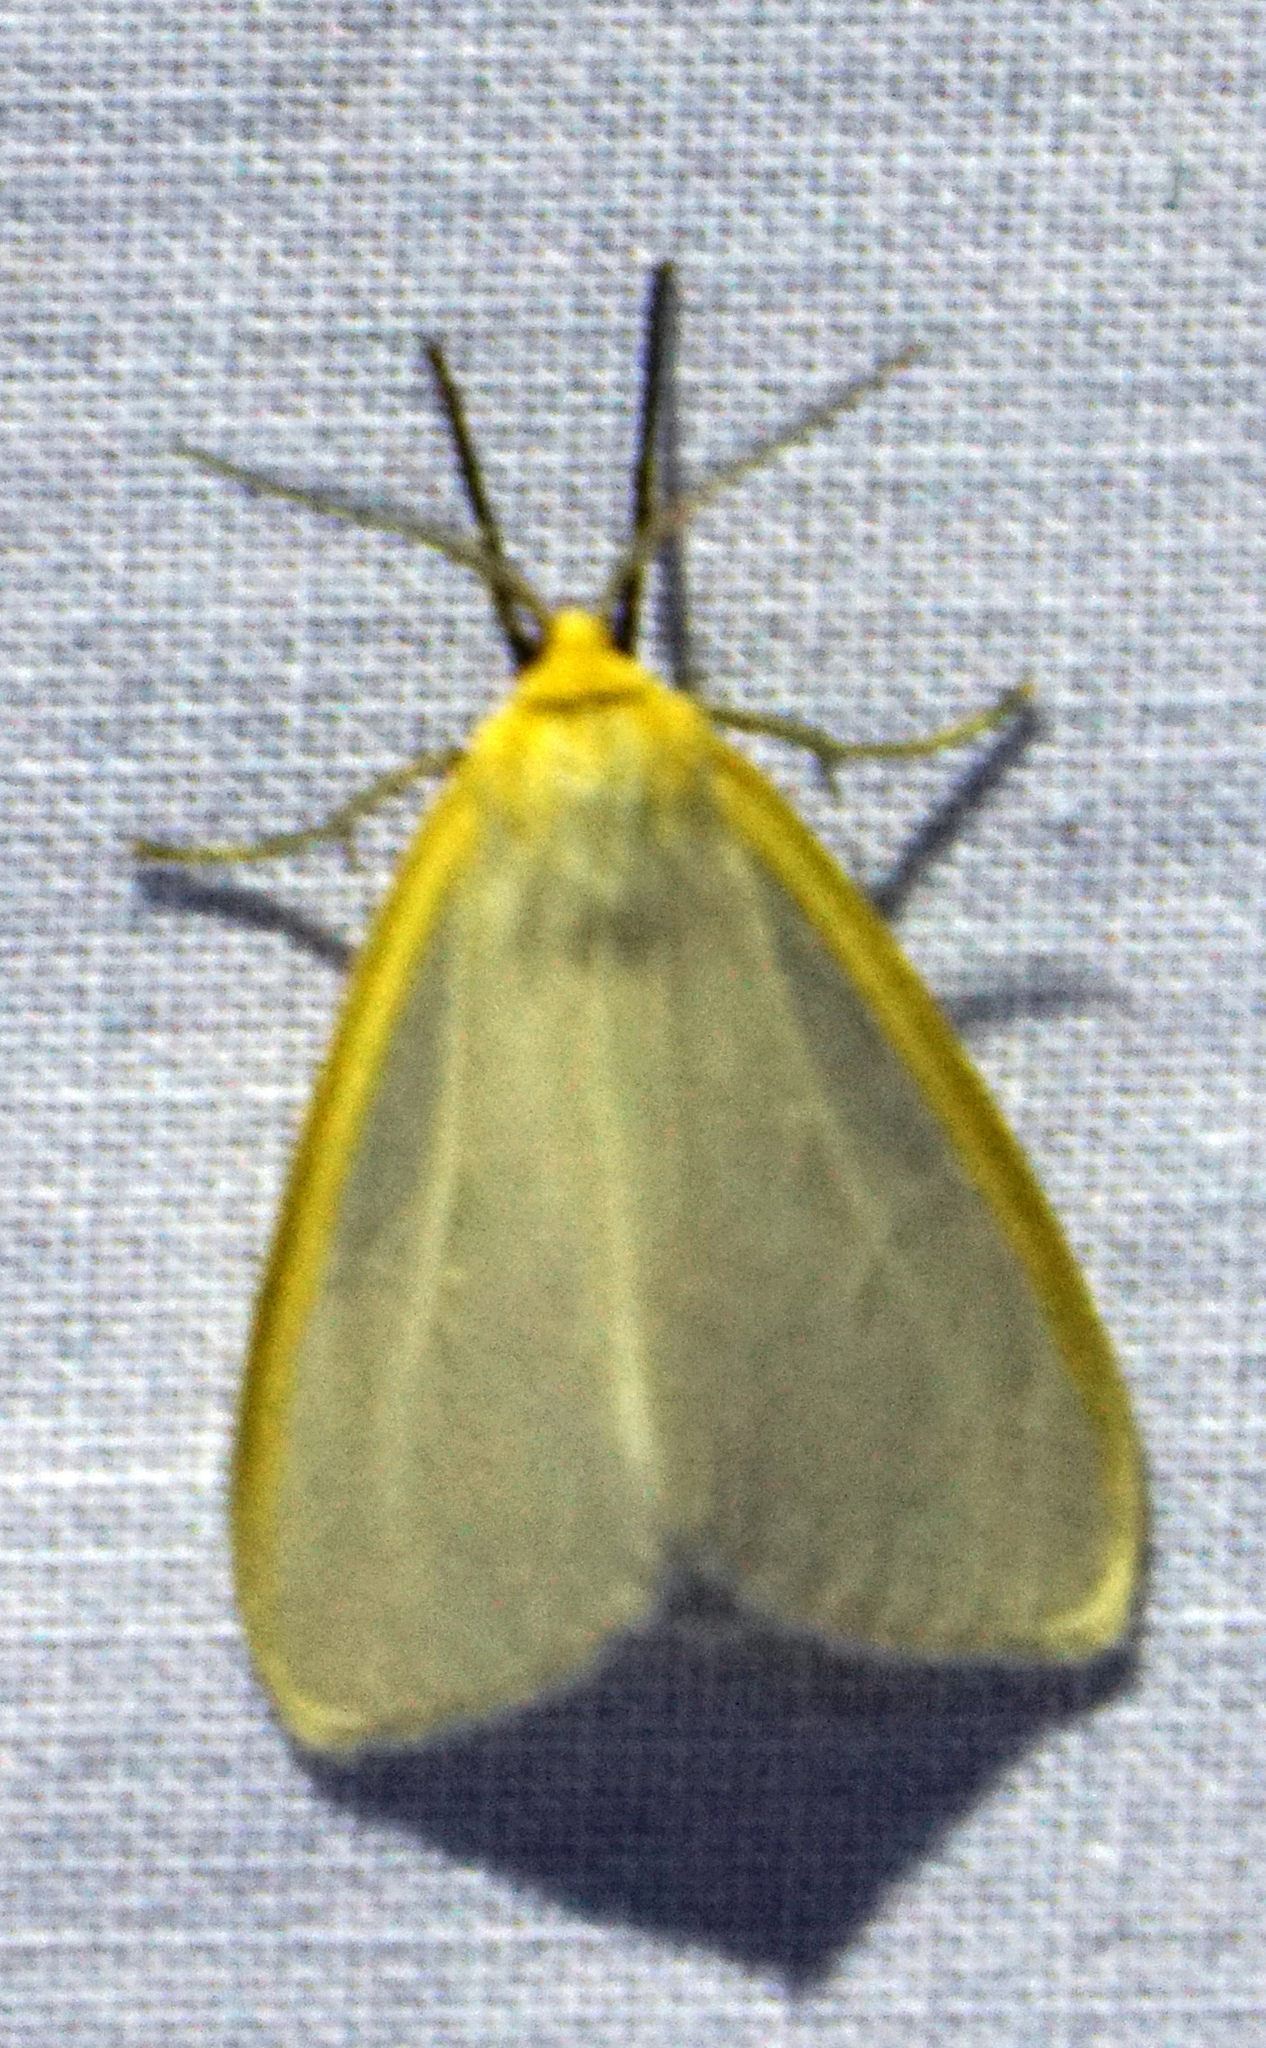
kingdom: Animalia
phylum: Arthropoda
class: Insecta
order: Lepidoptera
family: Erebidae
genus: Cycnia
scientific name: Cycnia tenera
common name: Delicate cycnia moth
